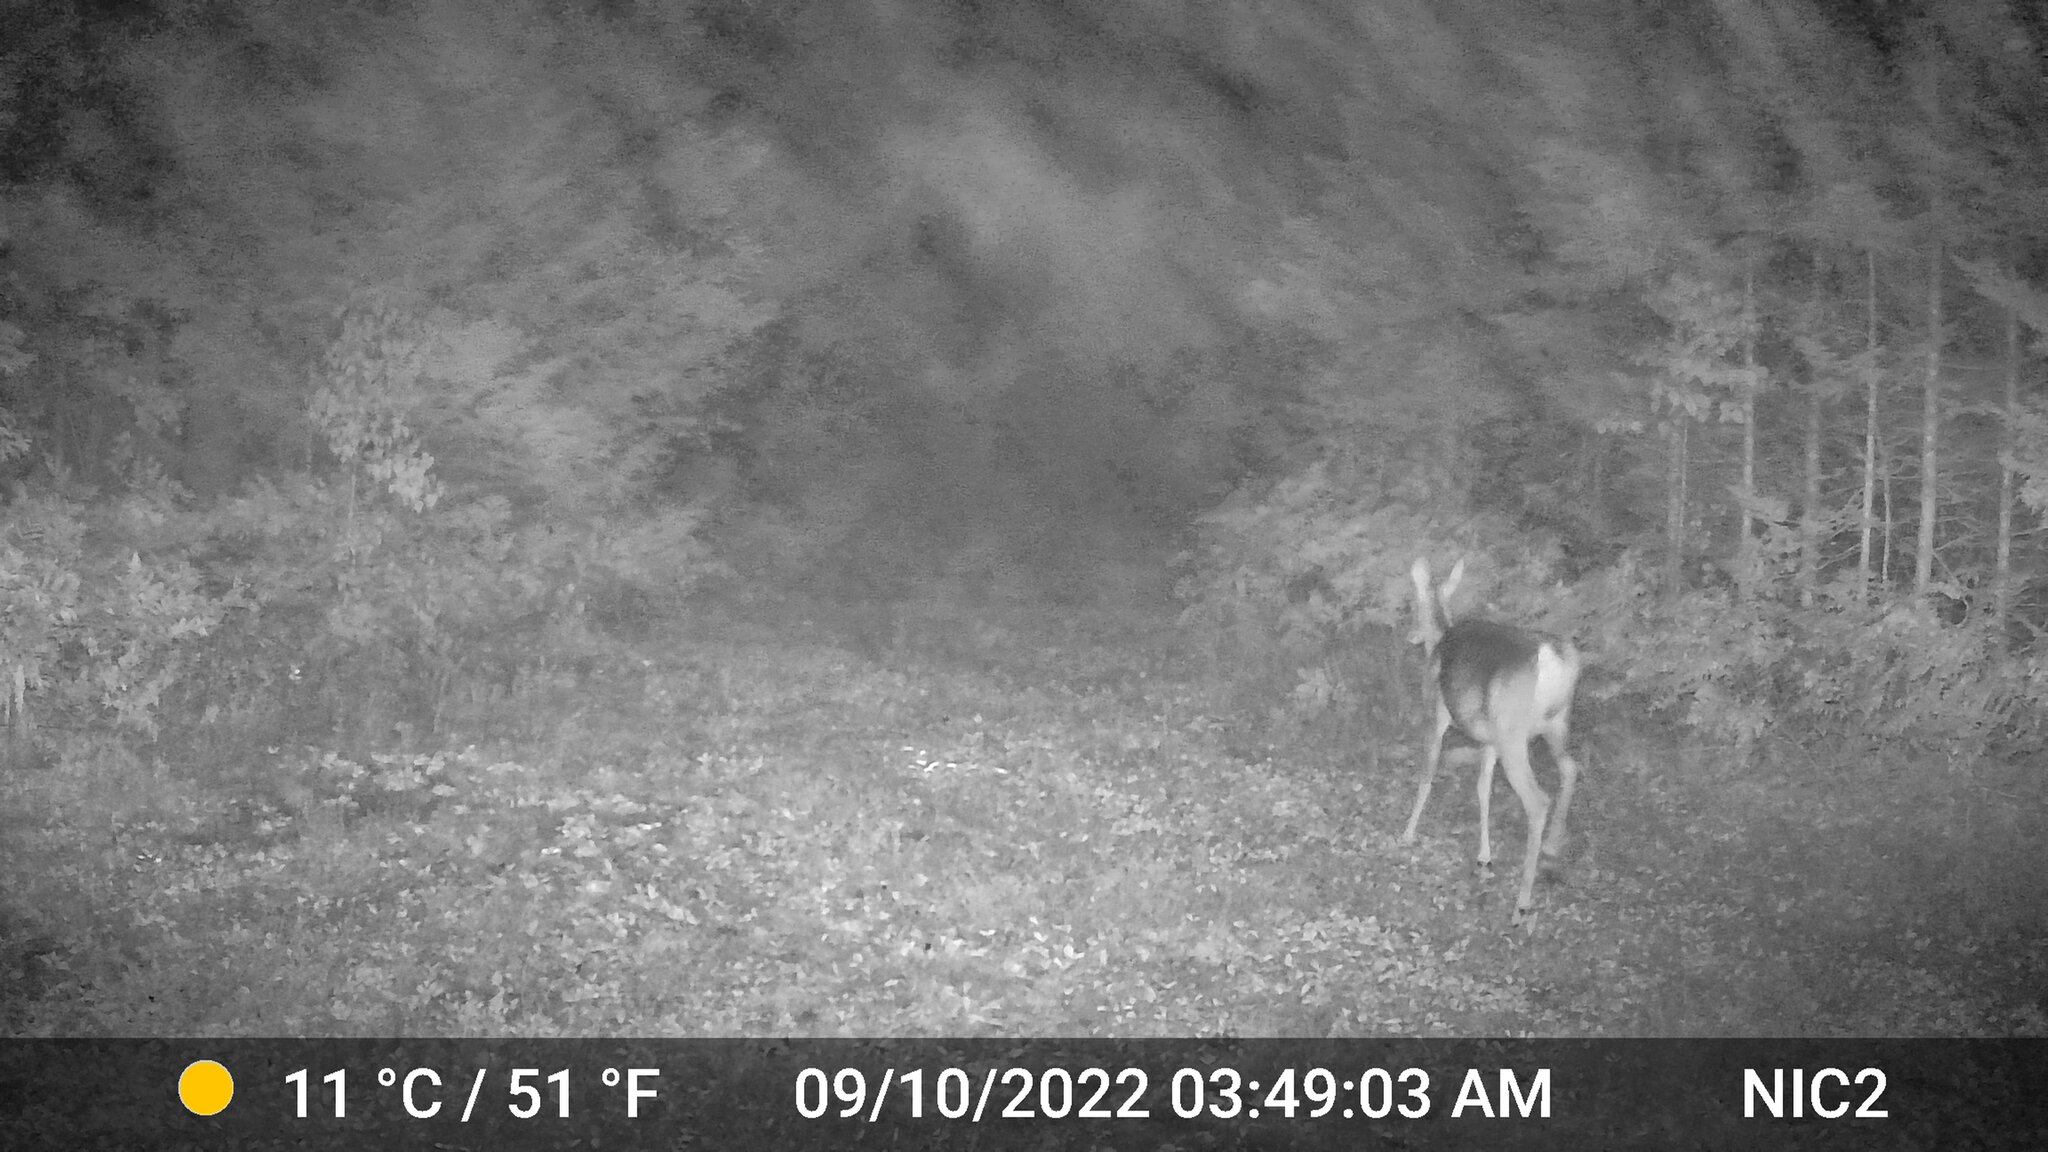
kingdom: Animalia
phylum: Chordata
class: Mammalia
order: Artiodactyla
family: Cervidae
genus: Odocoileus
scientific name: Odocoileus virginianus
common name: White-tailed deer
